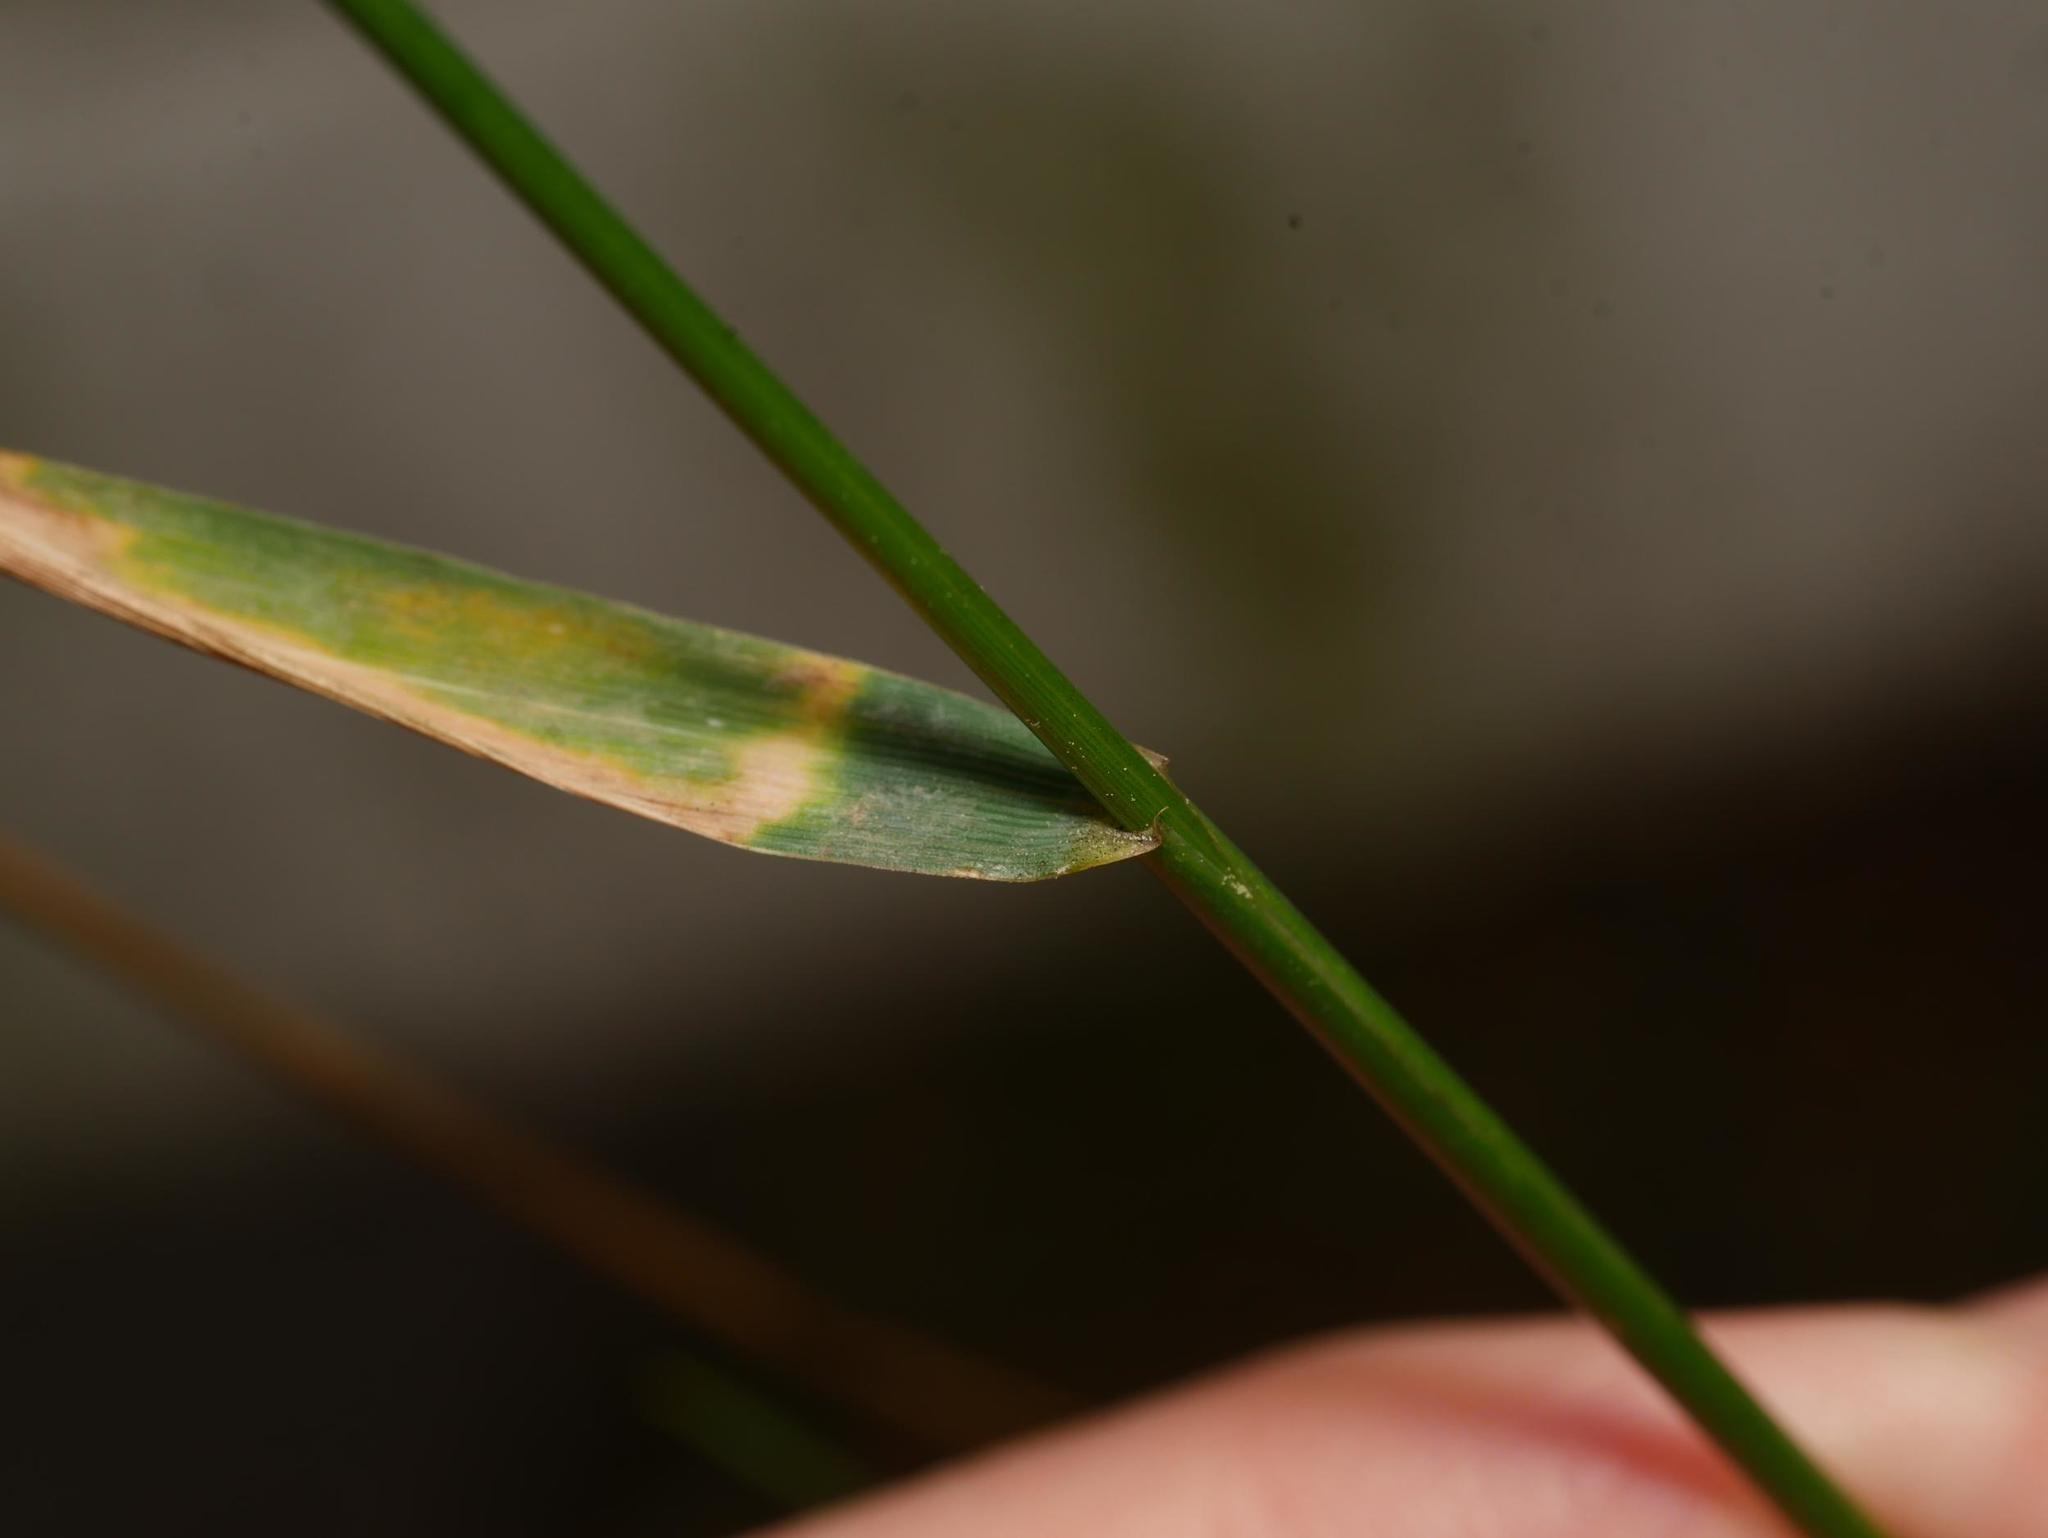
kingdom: Plantae
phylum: Tracheophyta
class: Liliopsida
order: Poales
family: Poaceae
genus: Elymus
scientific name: Elymus caninus
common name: Bearded couch
